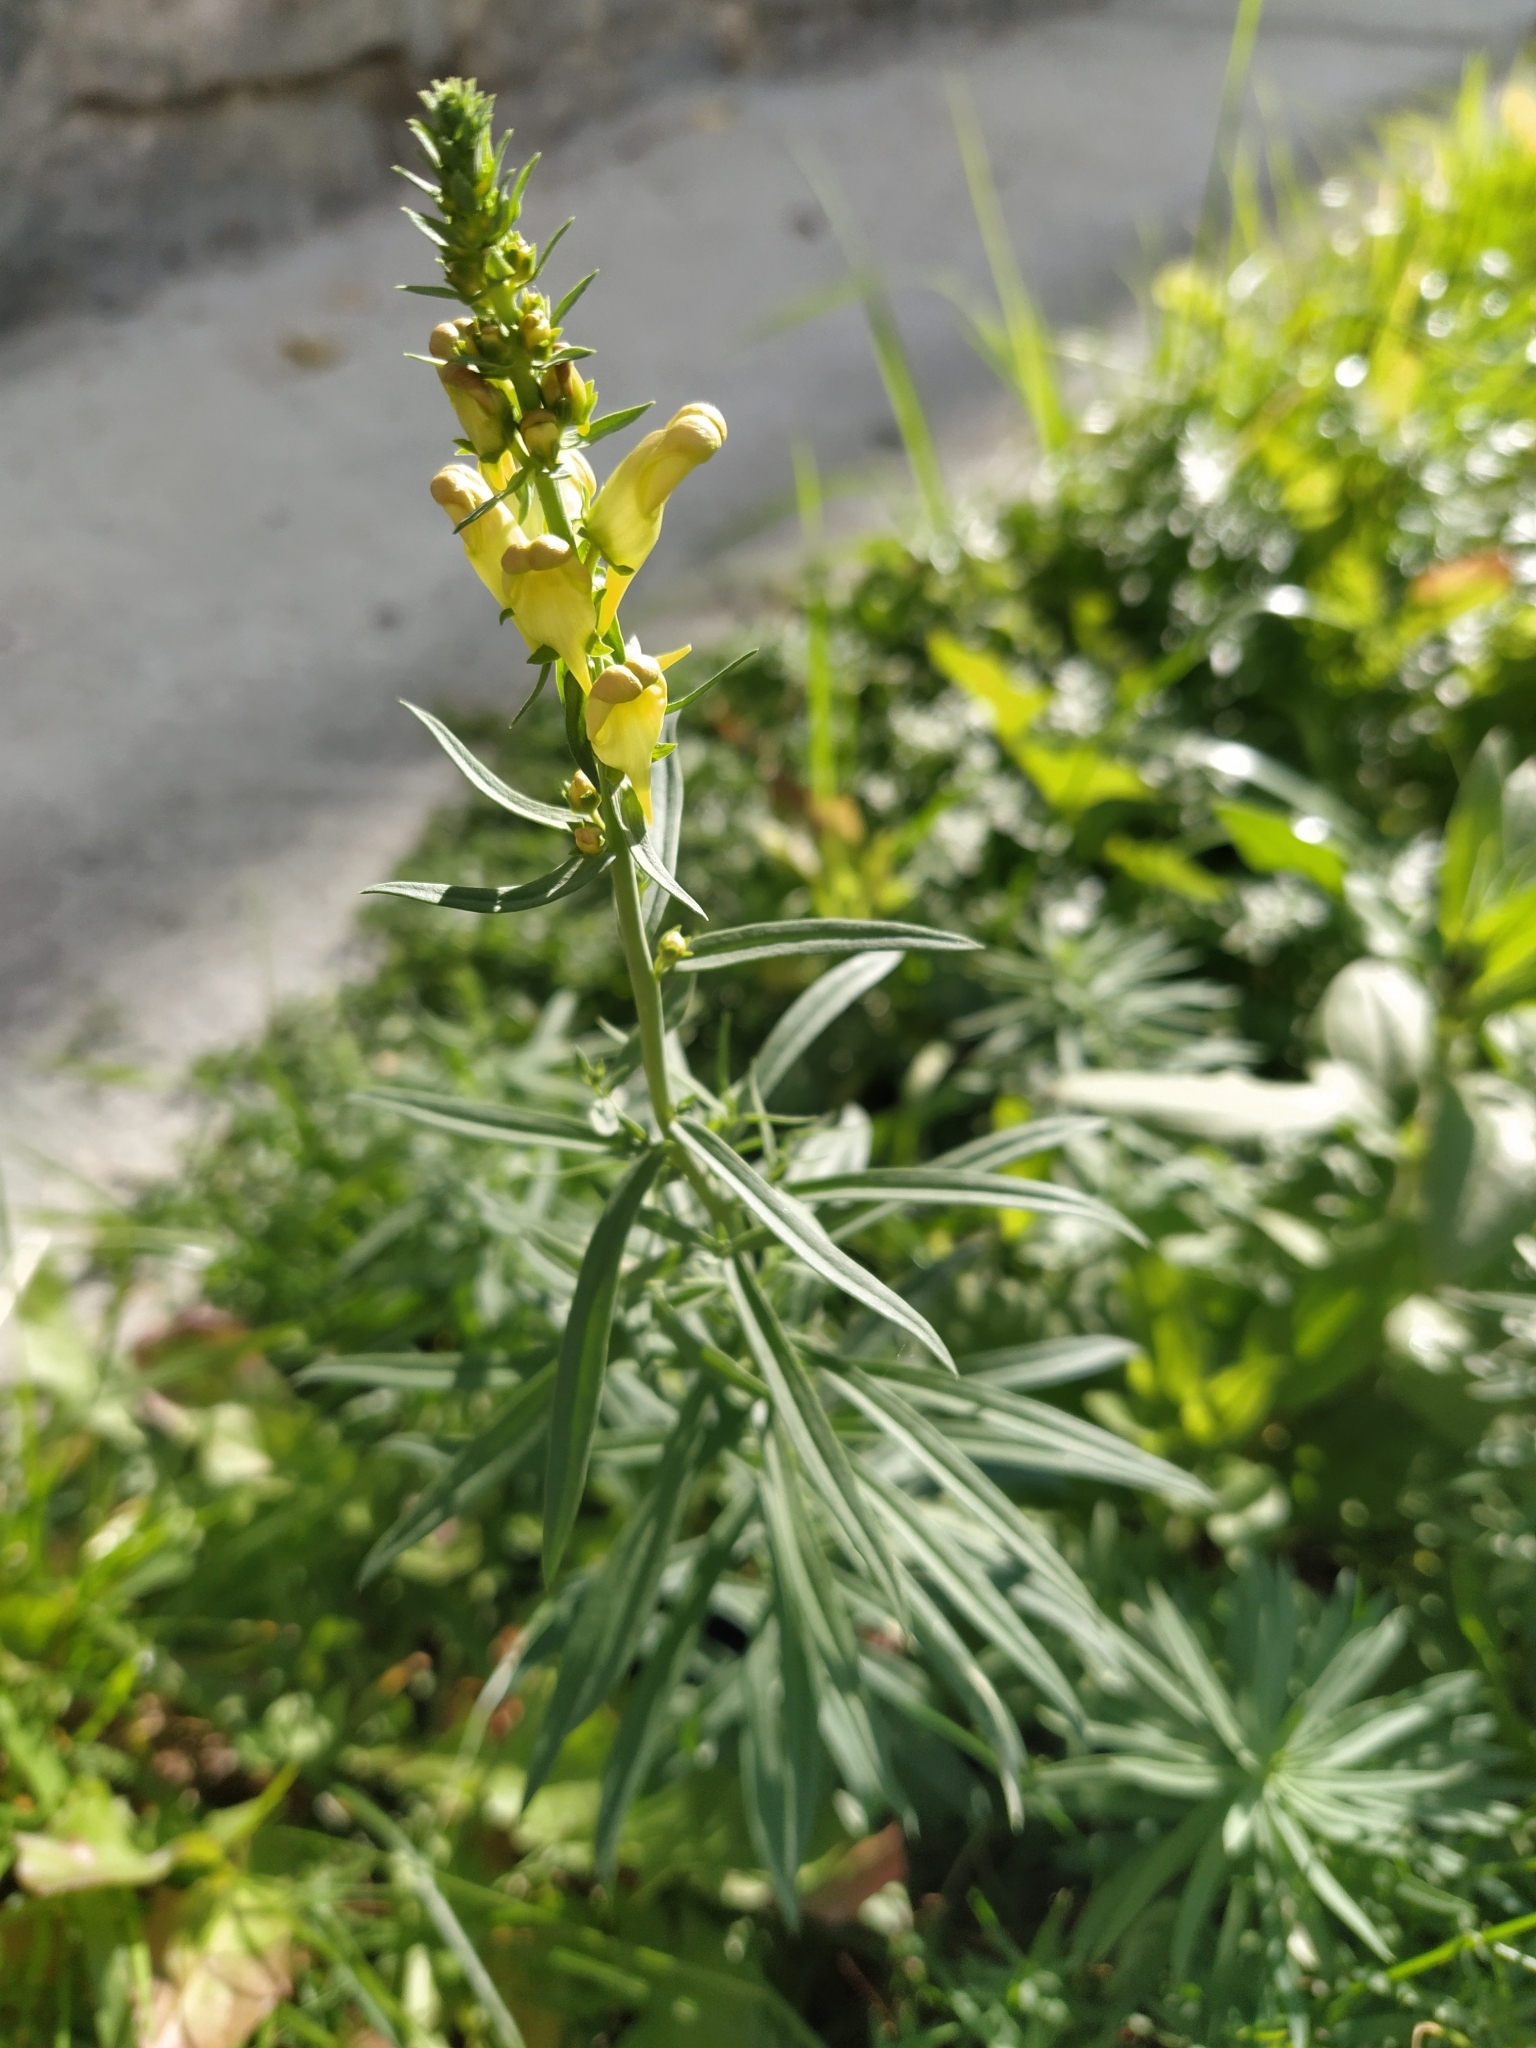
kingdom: Plantae
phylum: Tracheophyta
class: Magnoliopsida
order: Lamiales
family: Plantaginaceae
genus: Linaria
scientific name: Linaria vulgaris
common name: Butter and eggs
